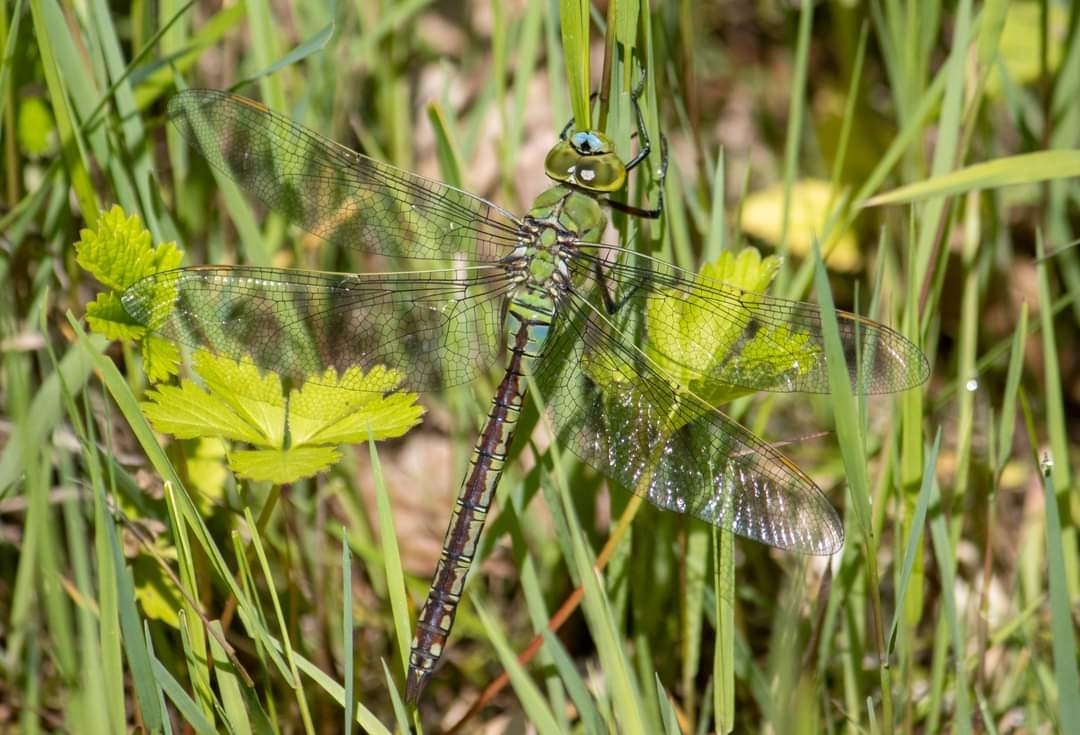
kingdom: Animalia
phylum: Arthropoda
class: Insecta
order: Odonata
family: Aeshnidae
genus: Anax
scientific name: Anax imperator
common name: Emperor dragonfly
